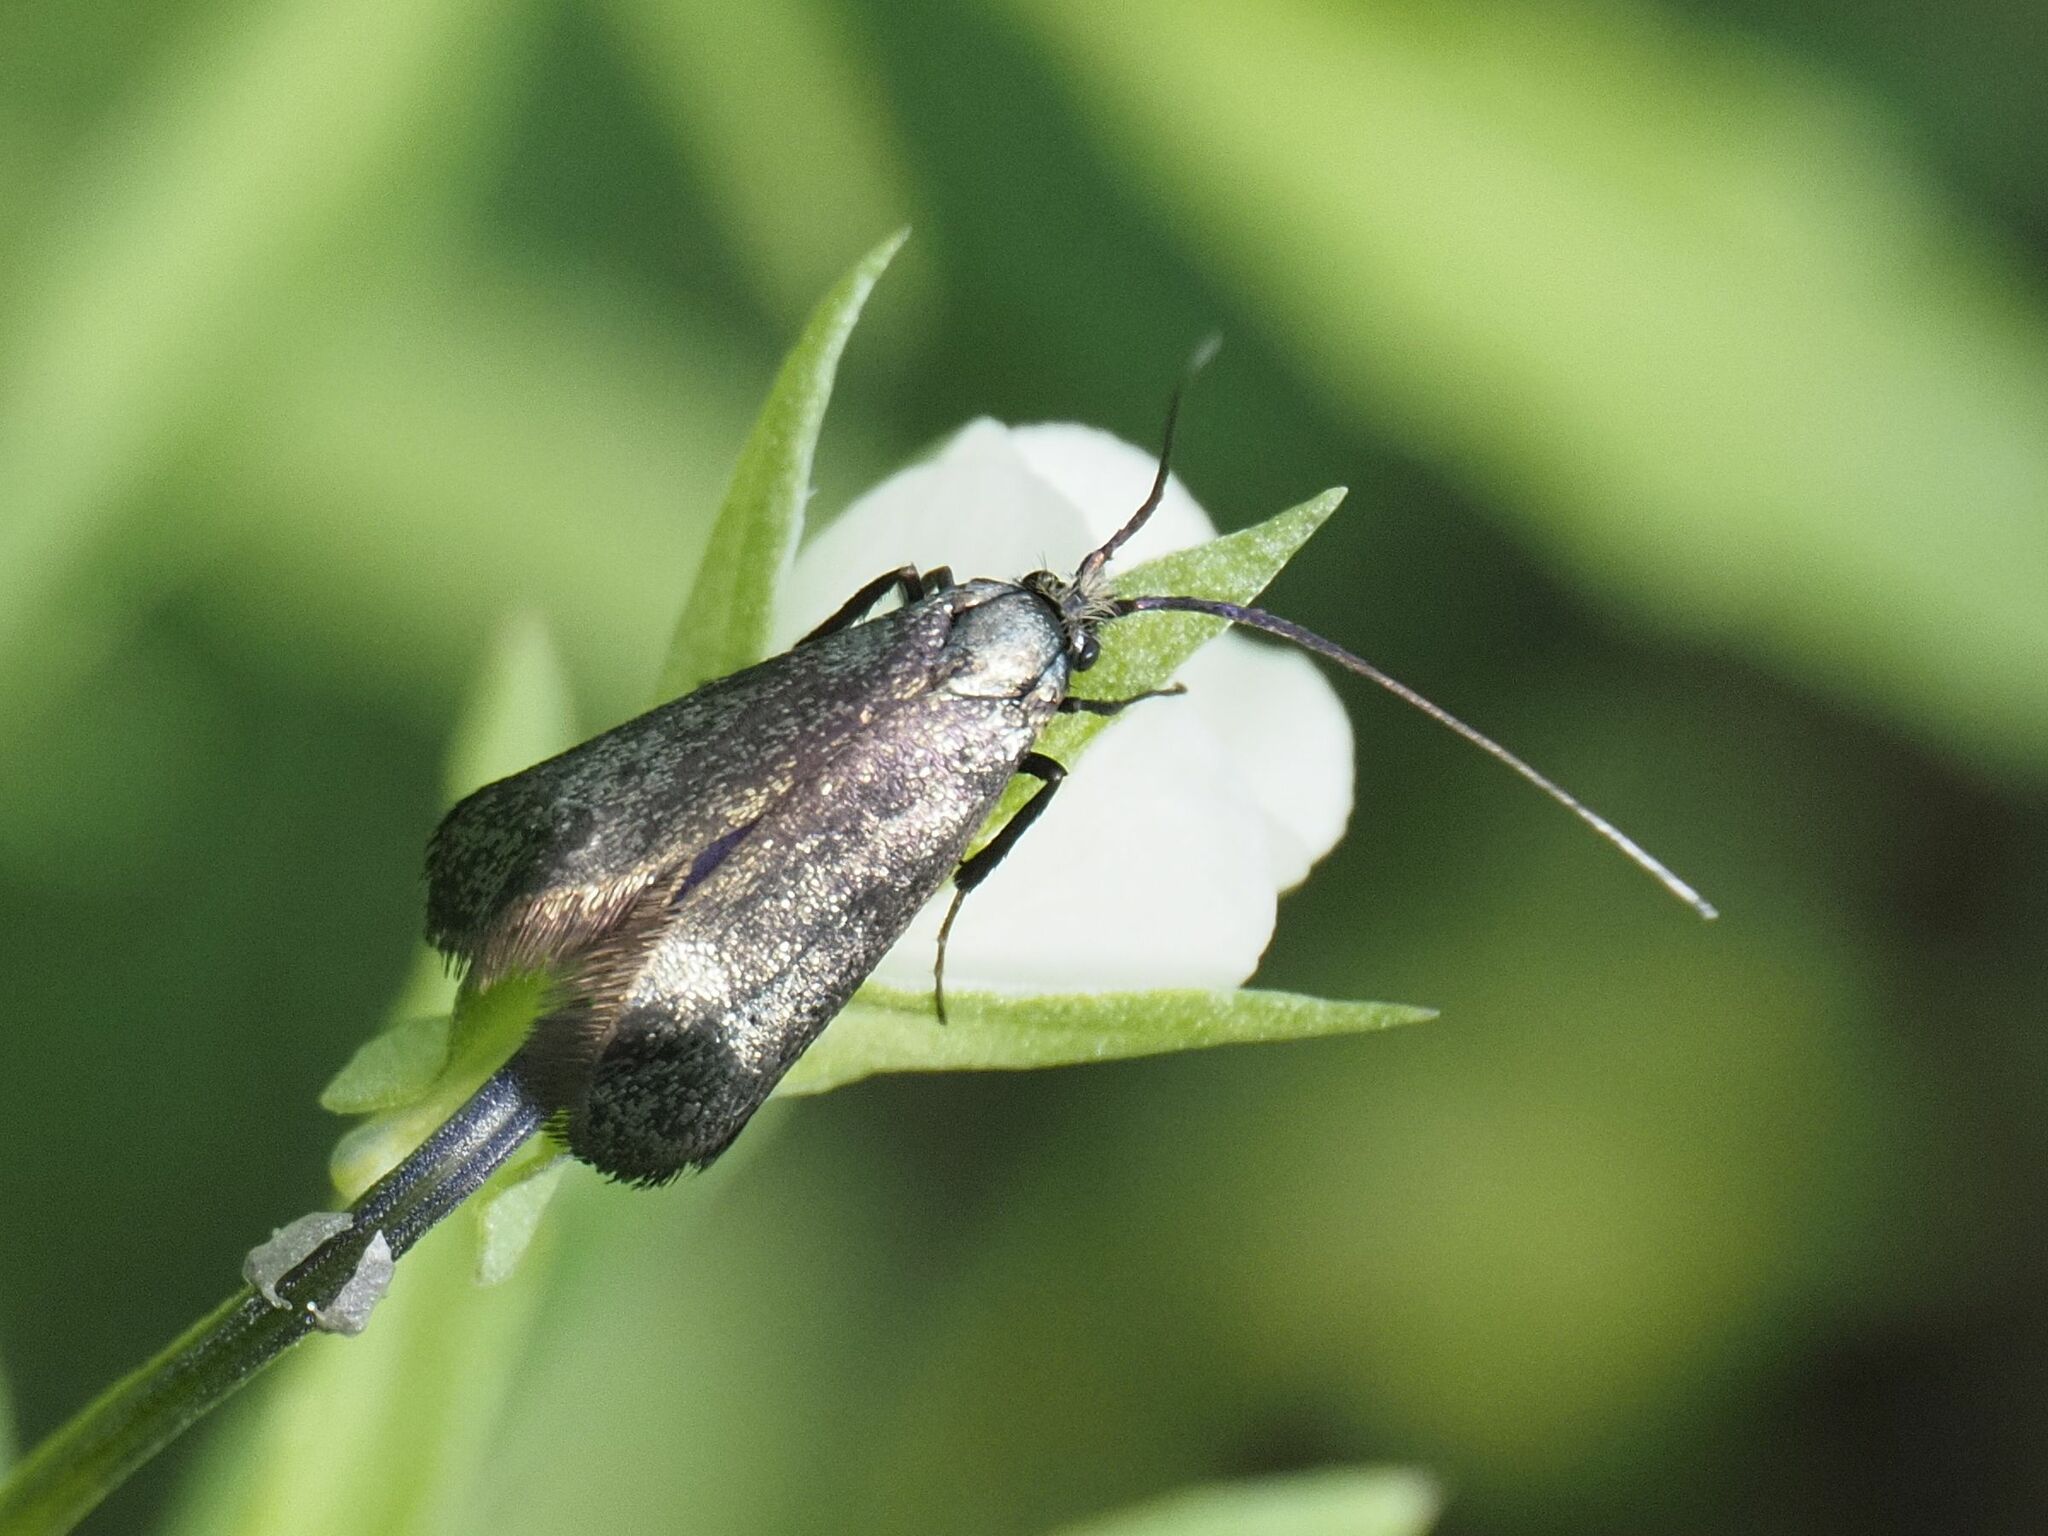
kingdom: Animalia
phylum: Arthropoda
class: Insecta
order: Lepidoptera
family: Adelidae
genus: Adela
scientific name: Adela viridella
